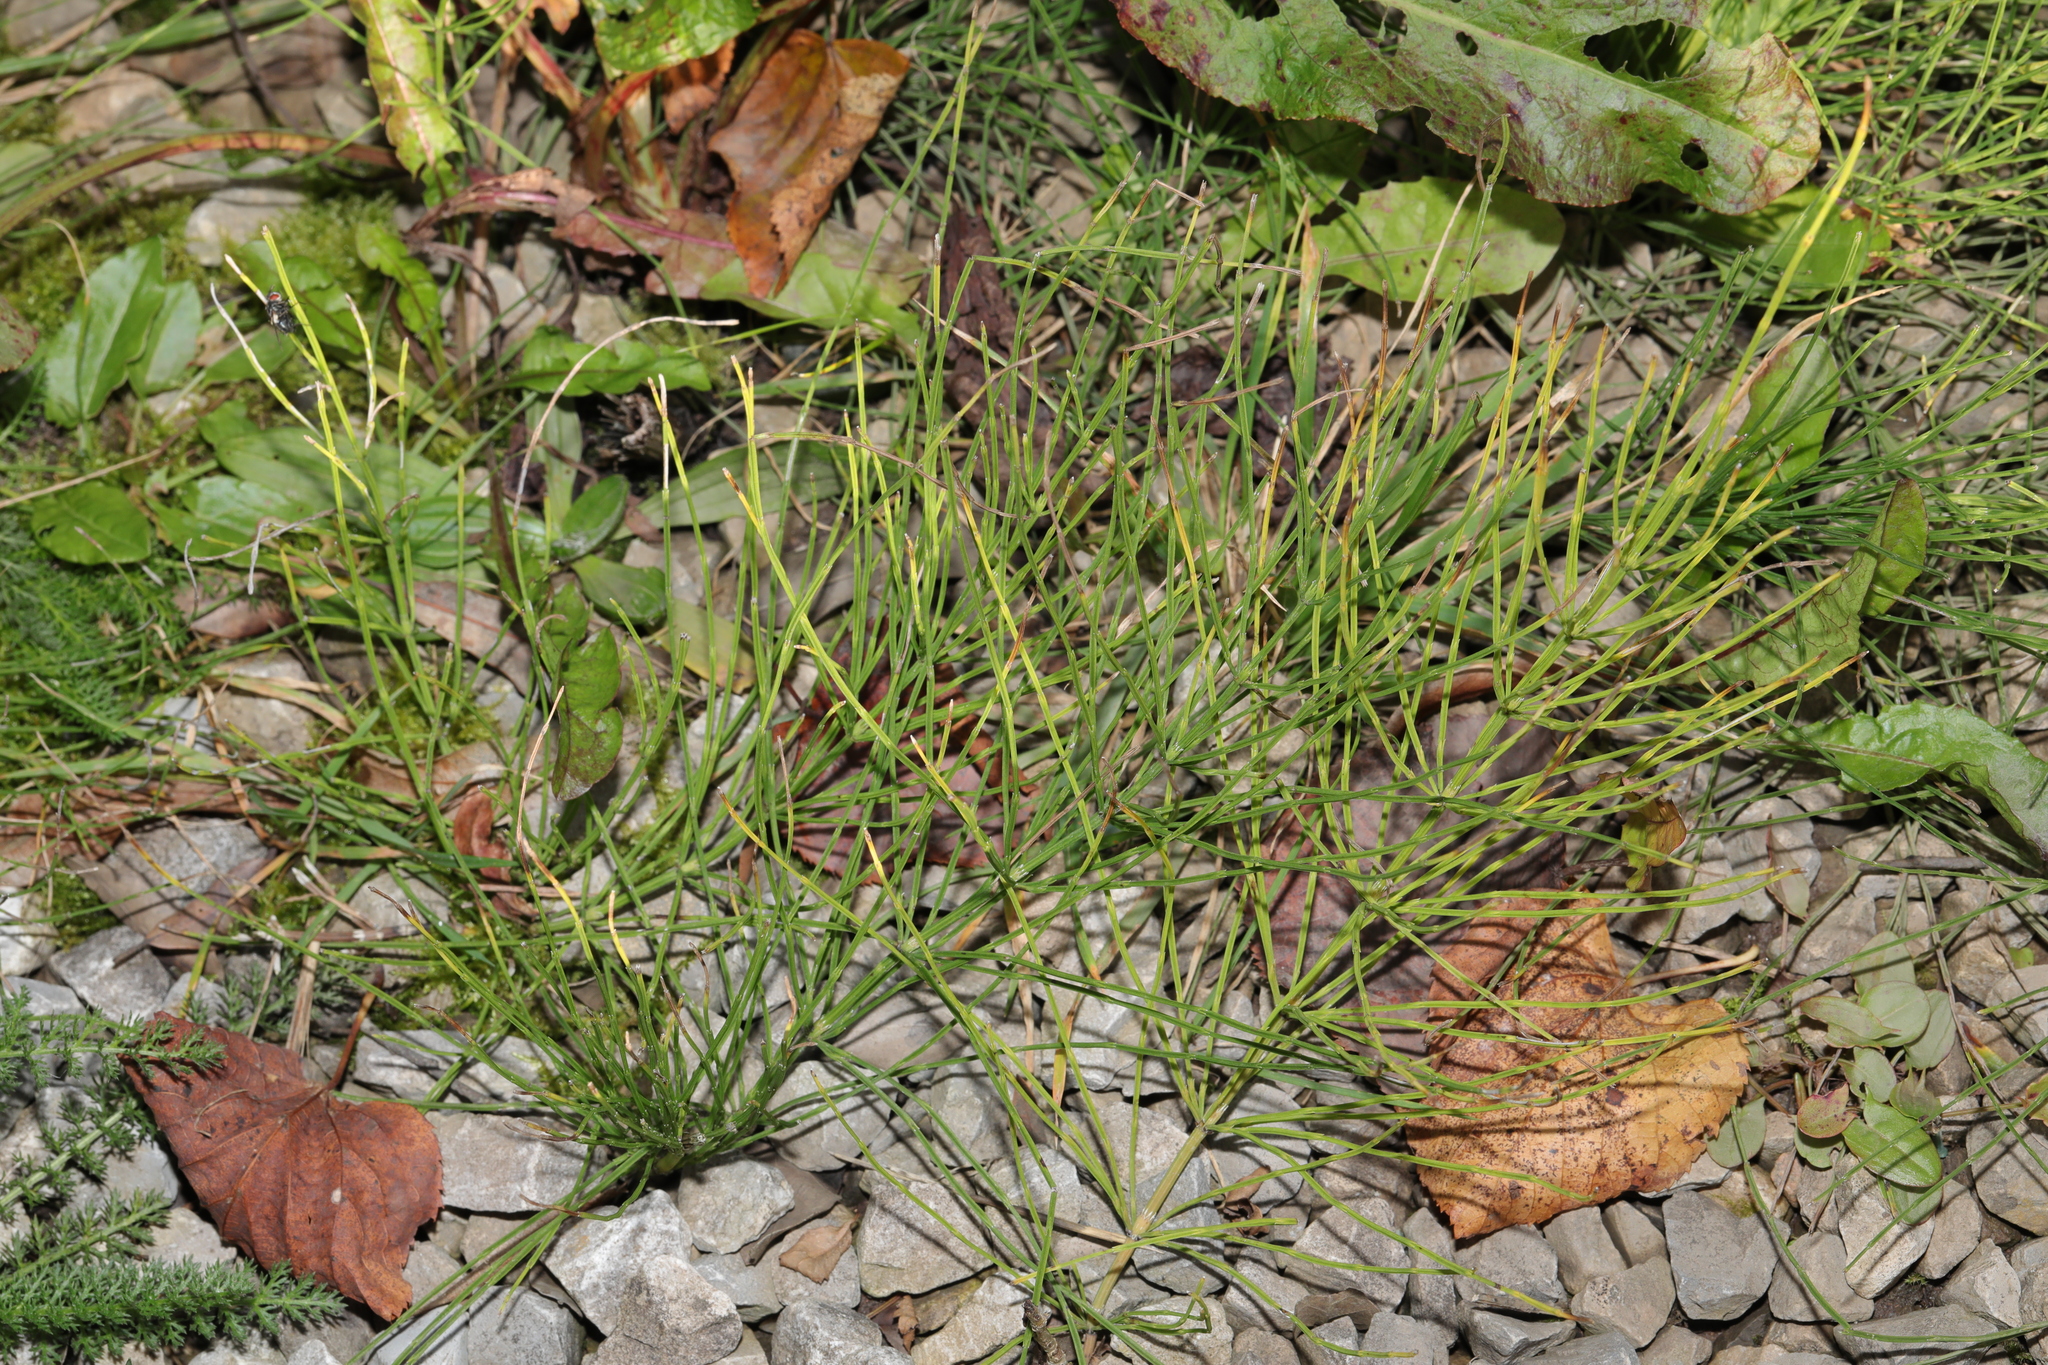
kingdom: Plantae
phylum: Tracheophyta
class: Polypodiopsida
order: Equisetales
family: Equisetaceae
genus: Equisetum
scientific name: Equisetum arvense
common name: Field horsetail
